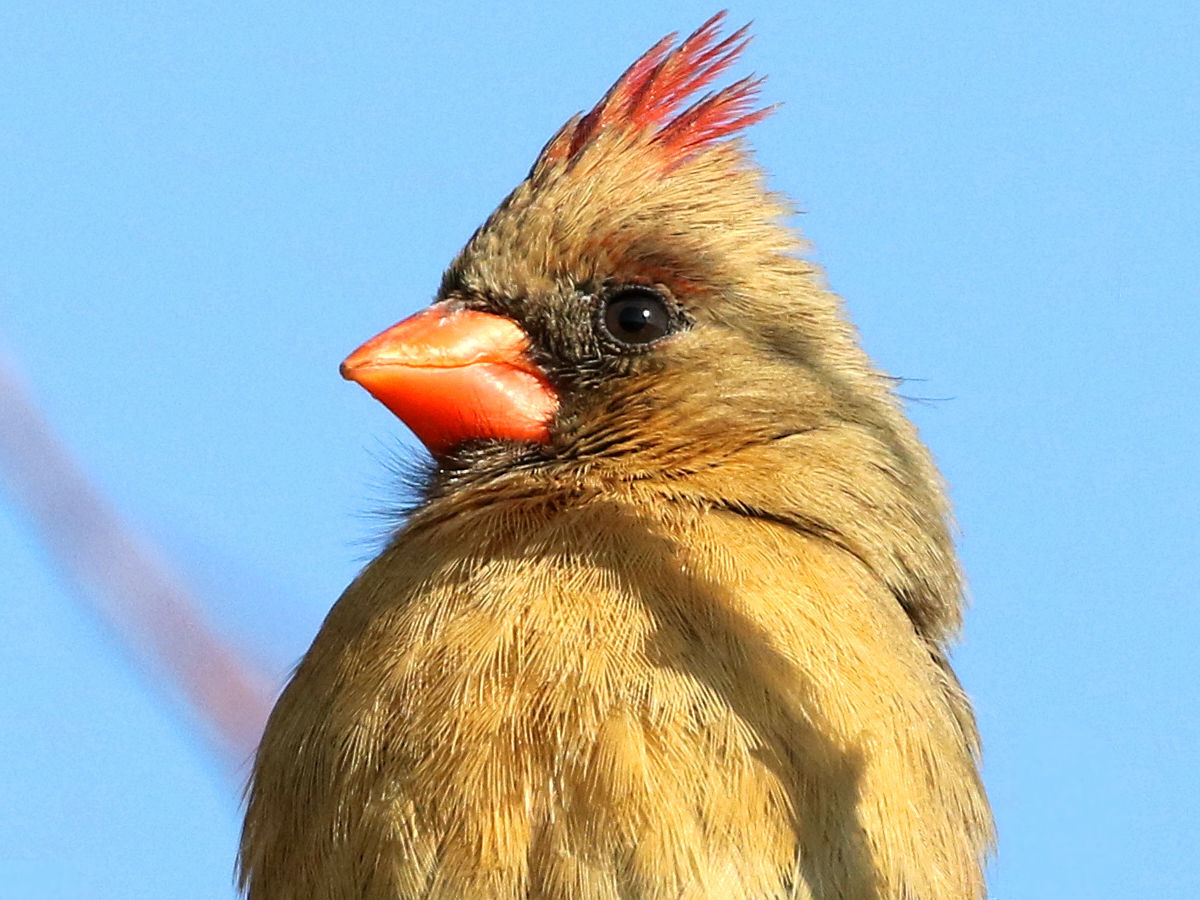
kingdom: Animalia
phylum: Chordata
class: Aves
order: Passeriformes
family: Cardinalidae
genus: Cardinalis
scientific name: Cardinalis cardinalis
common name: Northern cardinal
